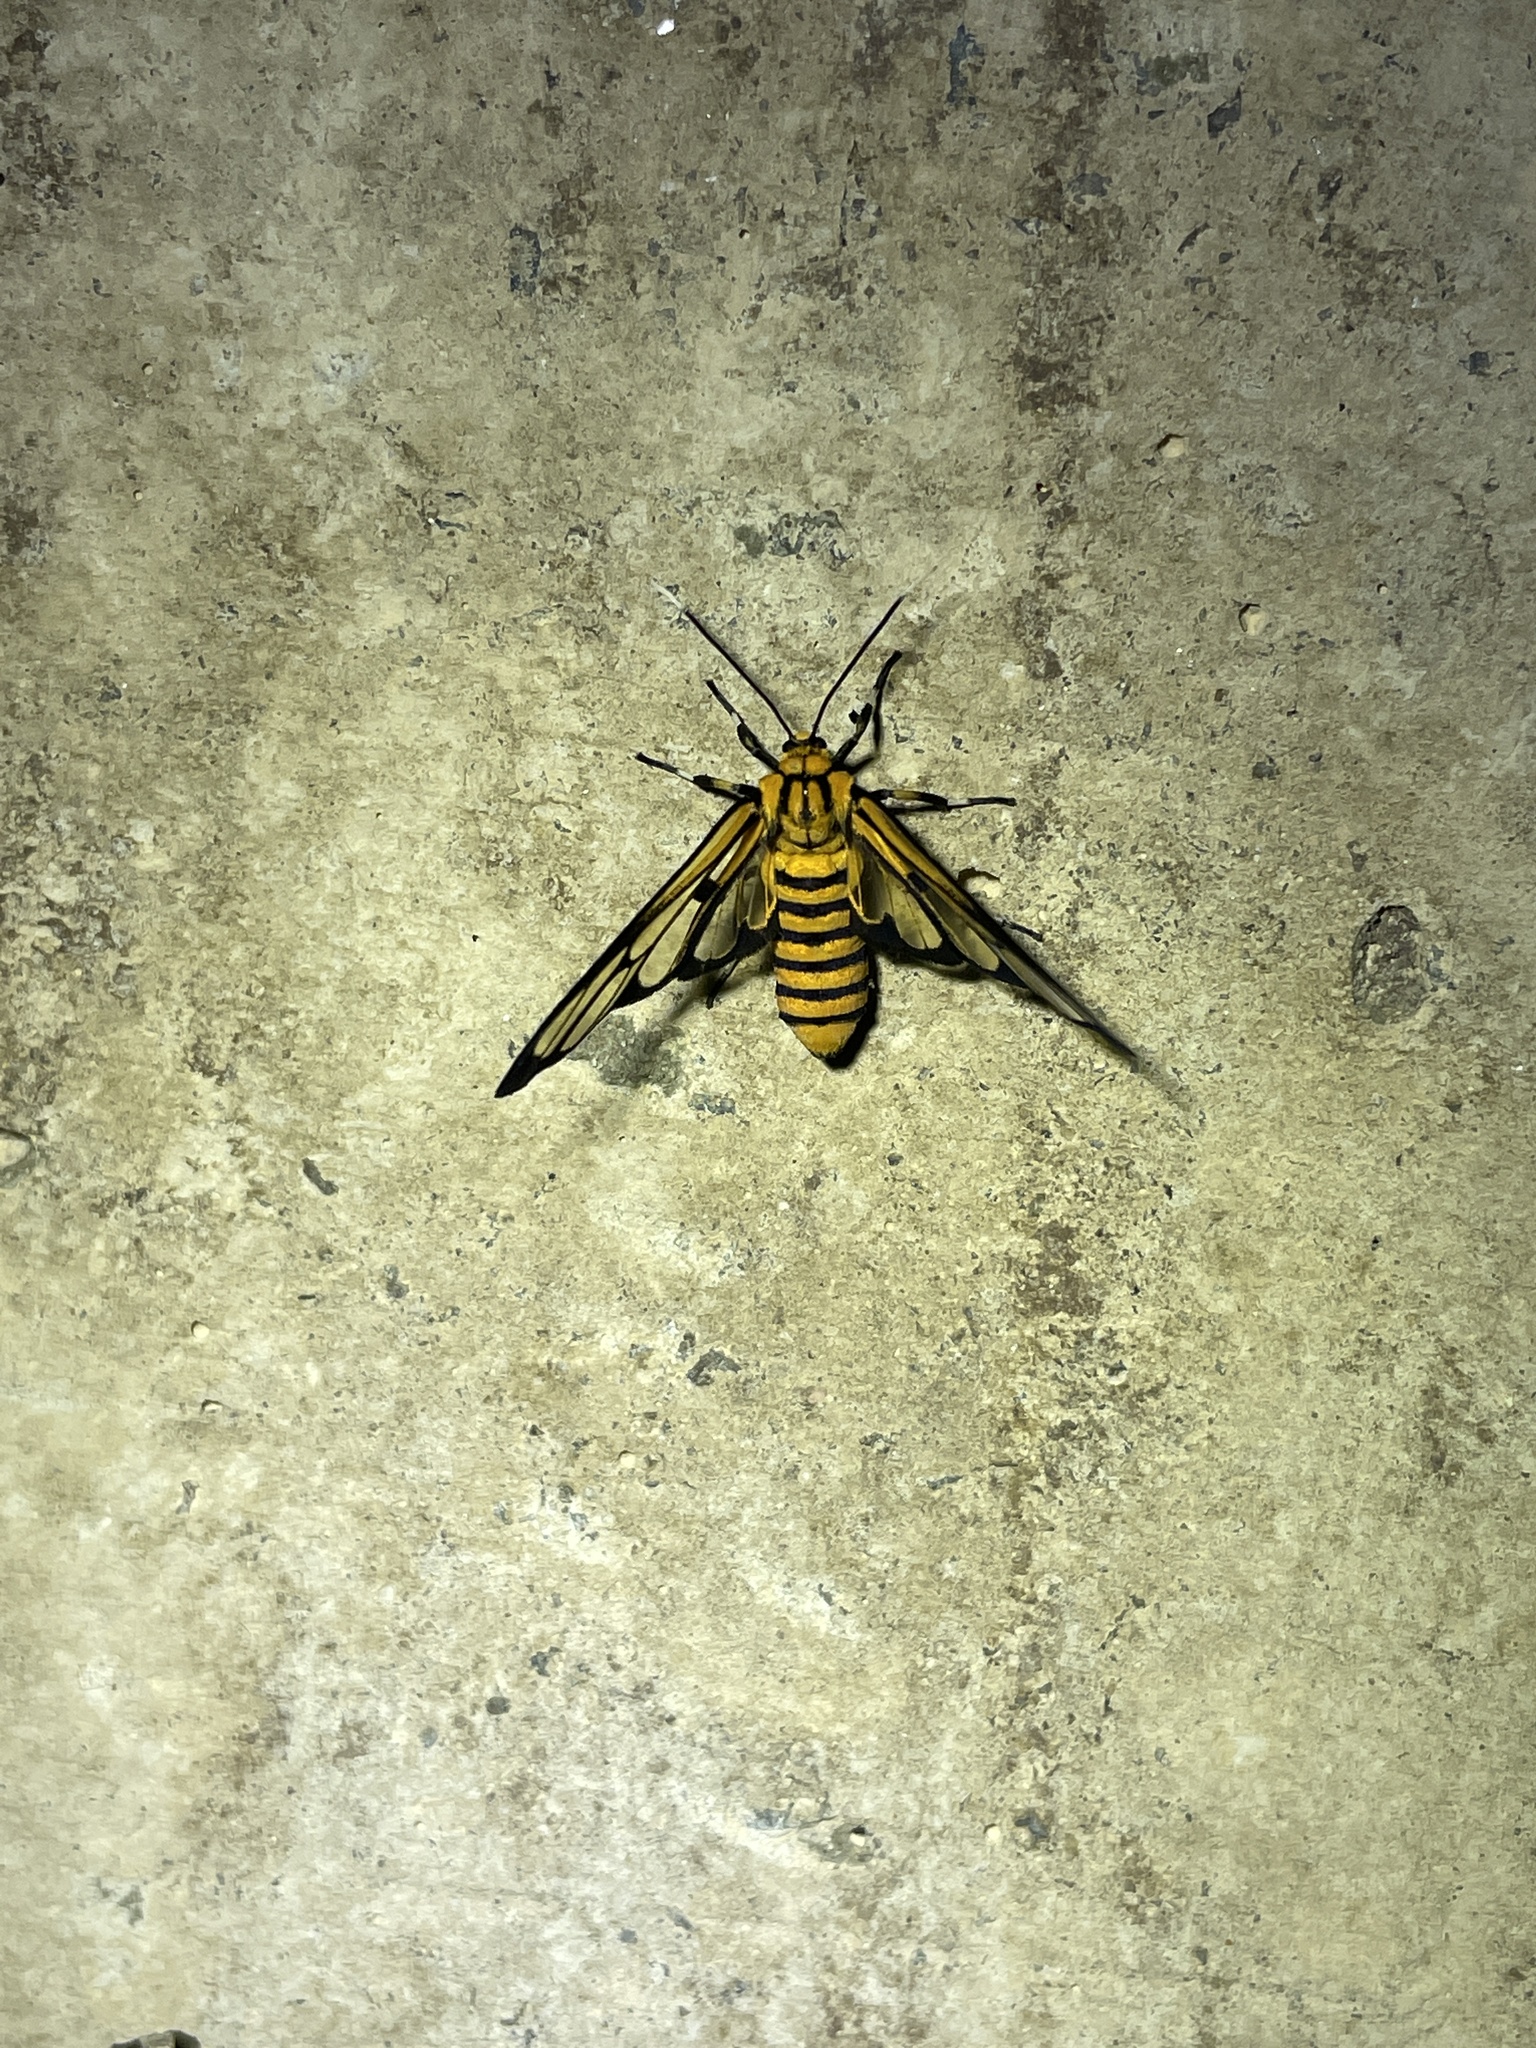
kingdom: Animalia
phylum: Arthropoda
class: Insecta
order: Lepidoptera
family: Erebidae
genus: Amata
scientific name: Amata grotei
